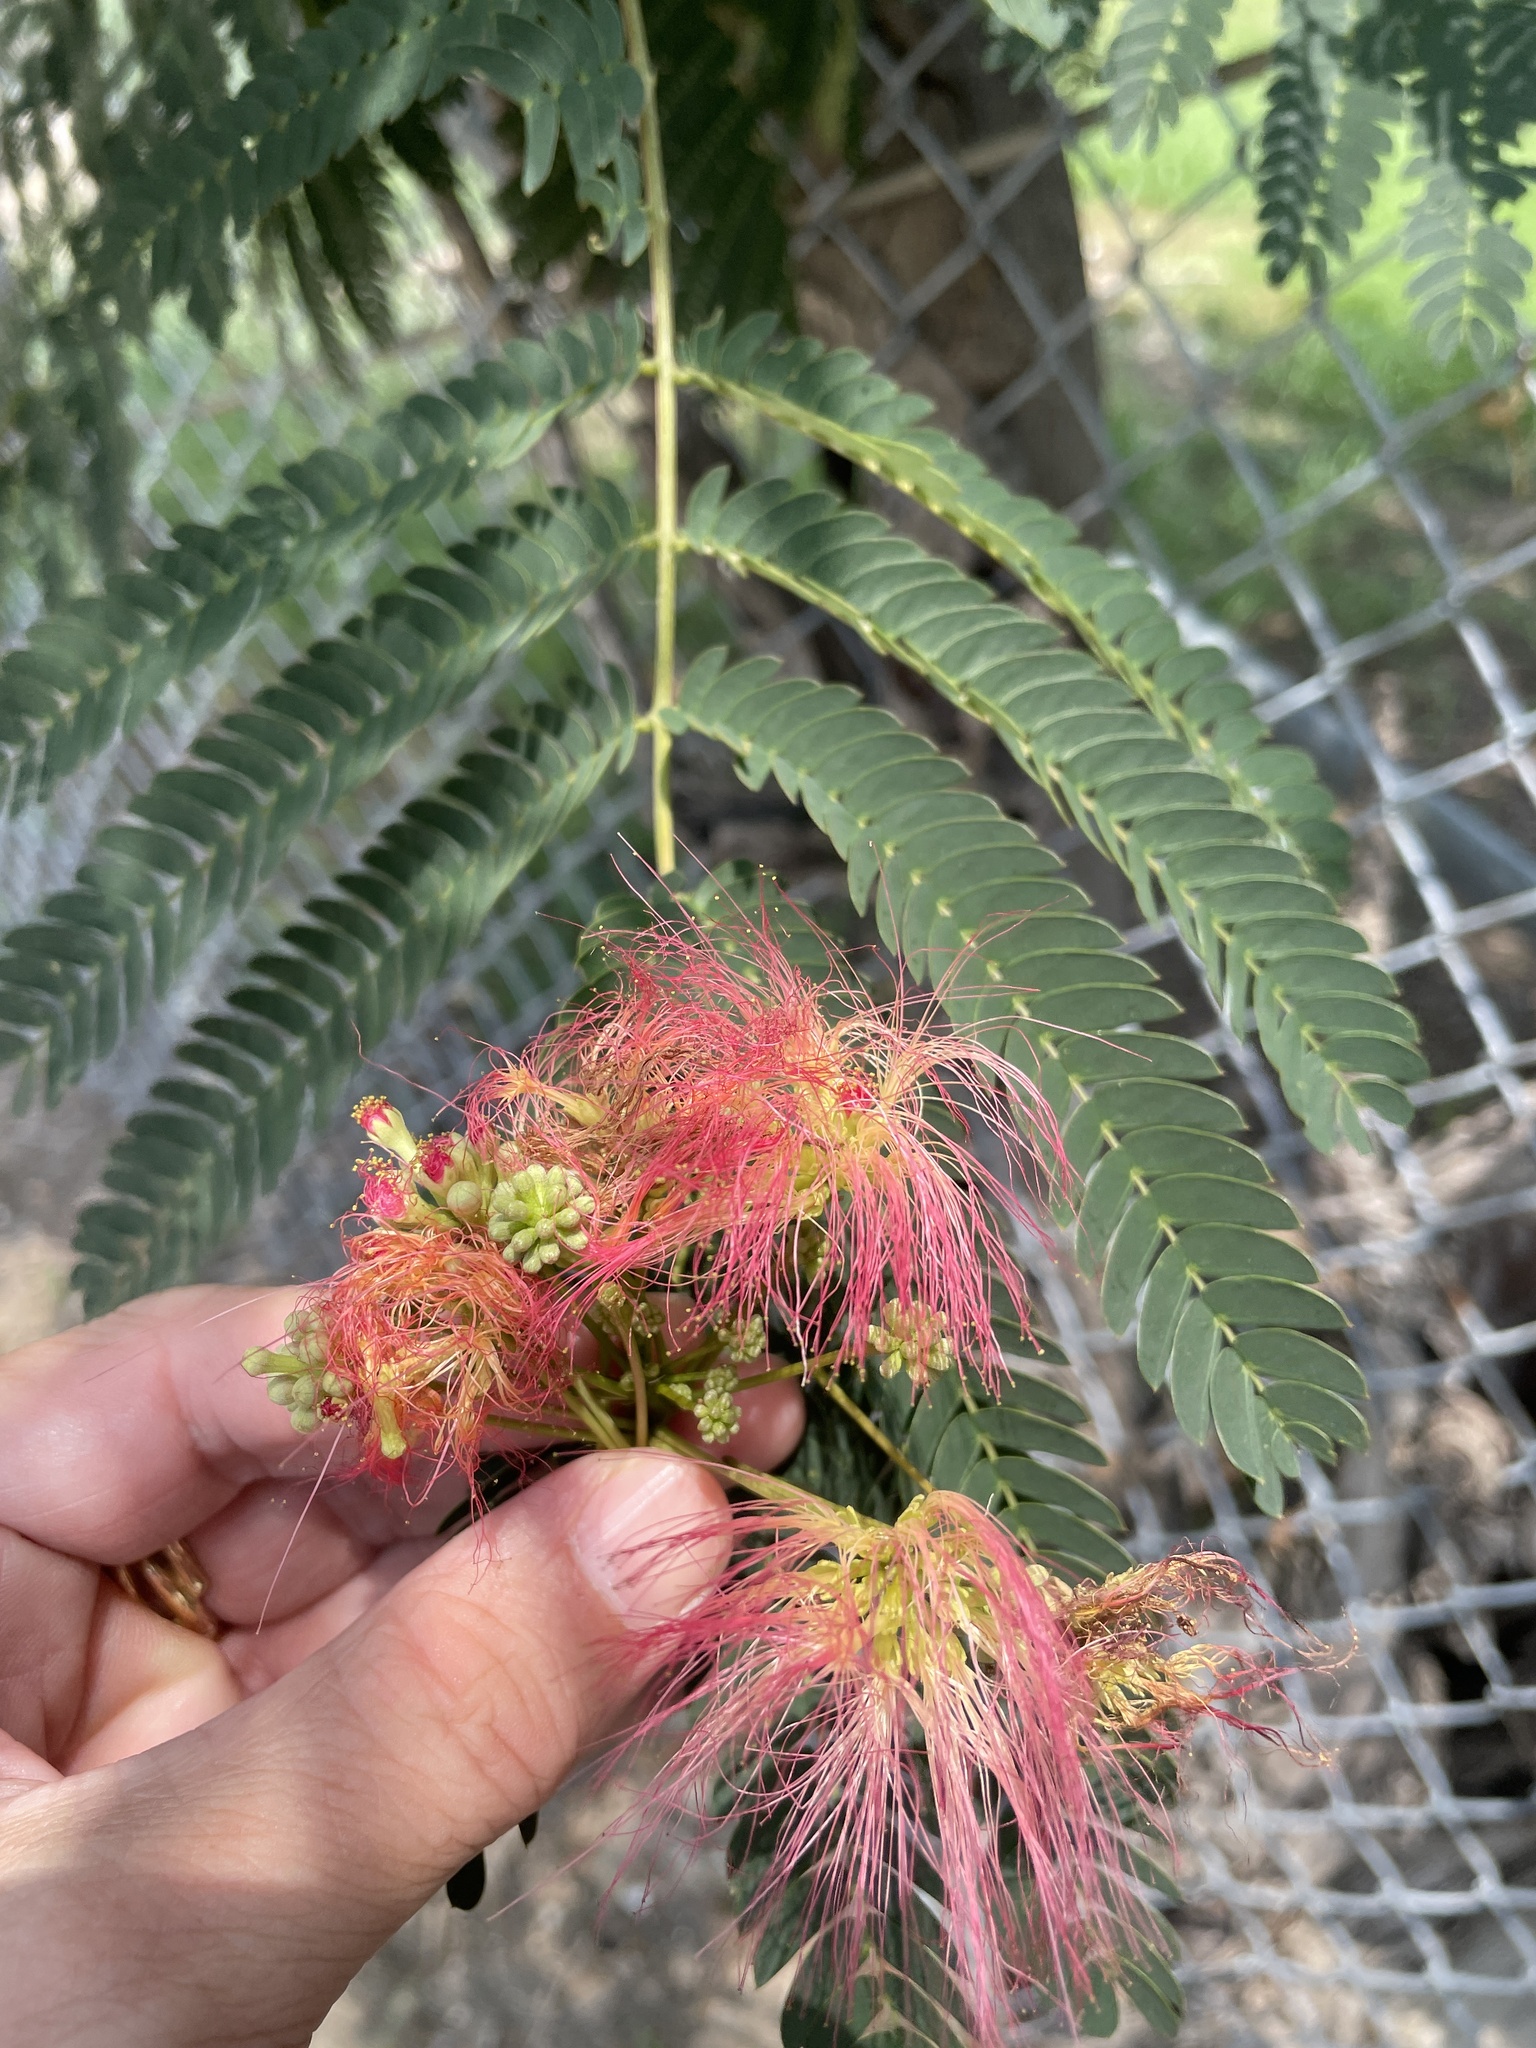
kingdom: Plantae
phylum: Tracheophyta
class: Magnoliopsida
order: Fabales
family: Fabaceae
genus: Albizia
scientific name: Albizia julibrissin
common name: Silktree
